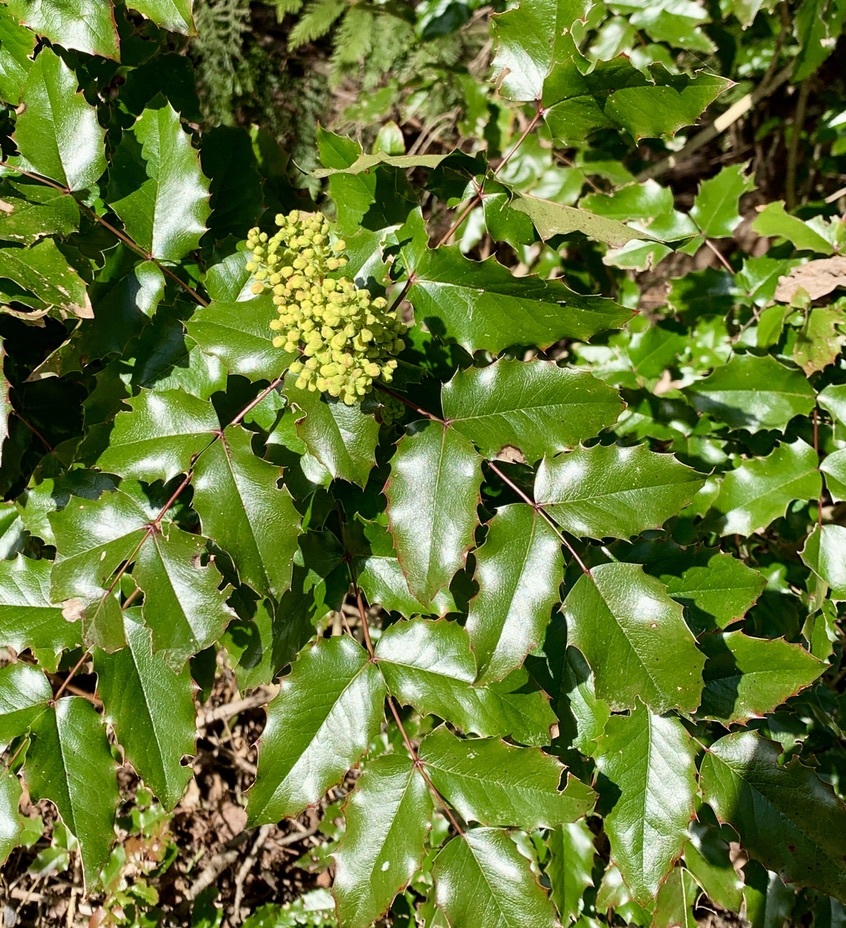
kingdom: Plantae
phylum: Tracheophyta
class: Magnoliopsida
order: Ranunculales
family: Berberidaceae
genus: Mahonia
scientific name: Mahonia aquifolium
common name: Oregon-grape
